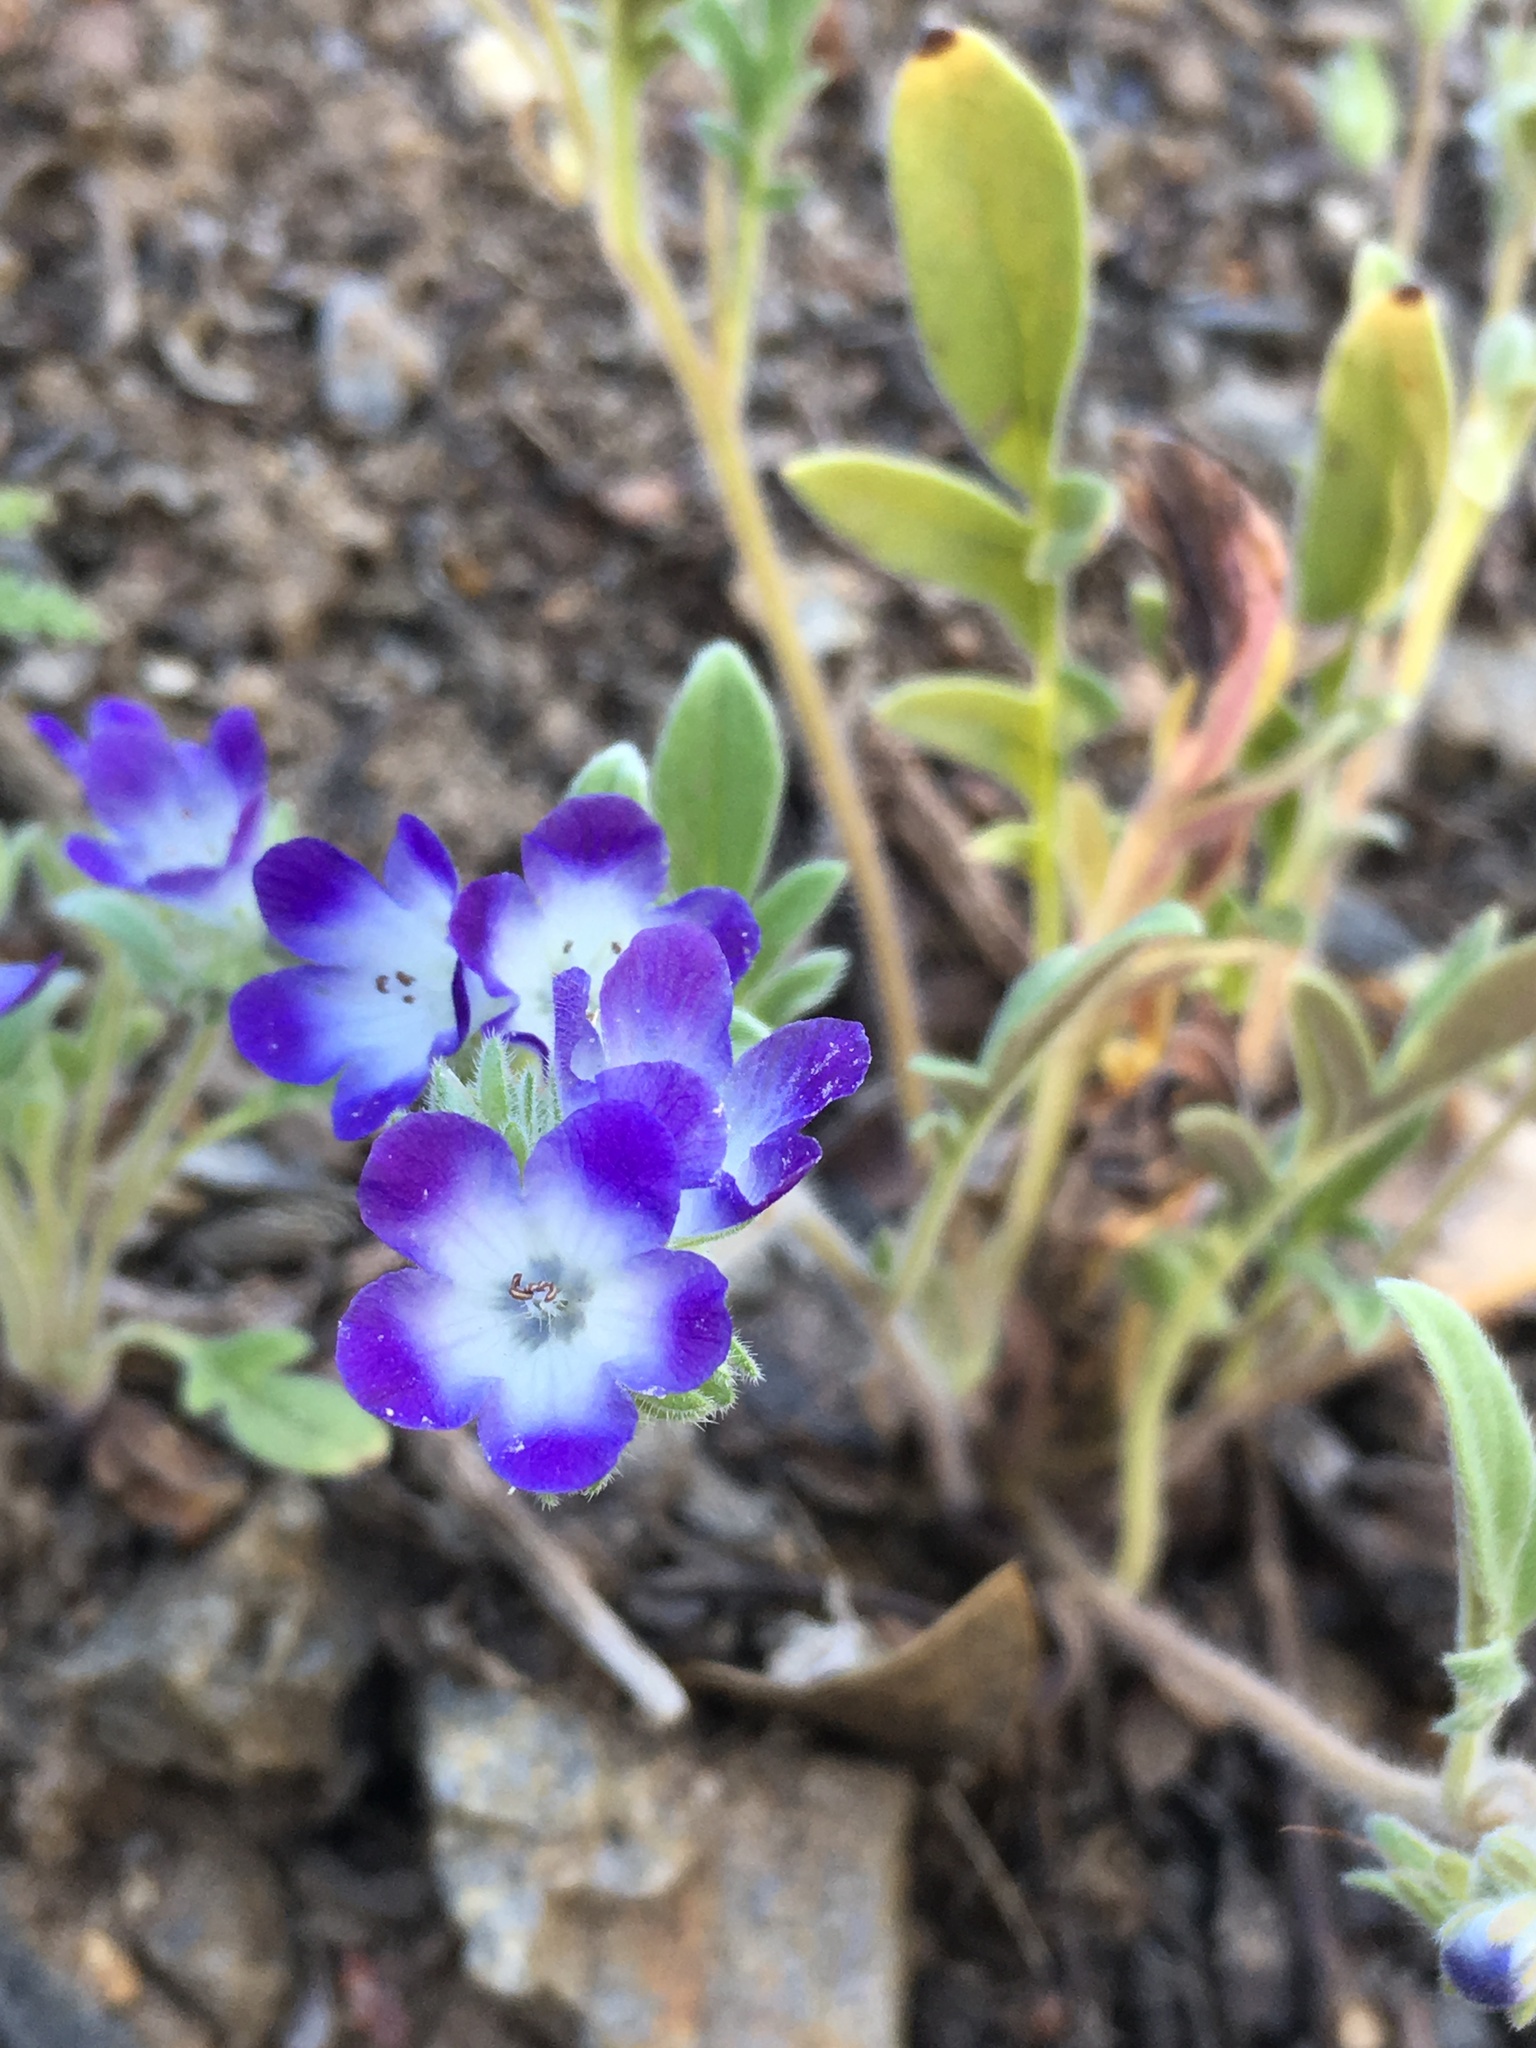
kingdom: Plantae
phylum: Tracheophyta
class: Magnoliopsida
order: Boraginales
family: Hydrophyllaceae
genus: Phacelia
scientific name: Phacelia davidsonii
